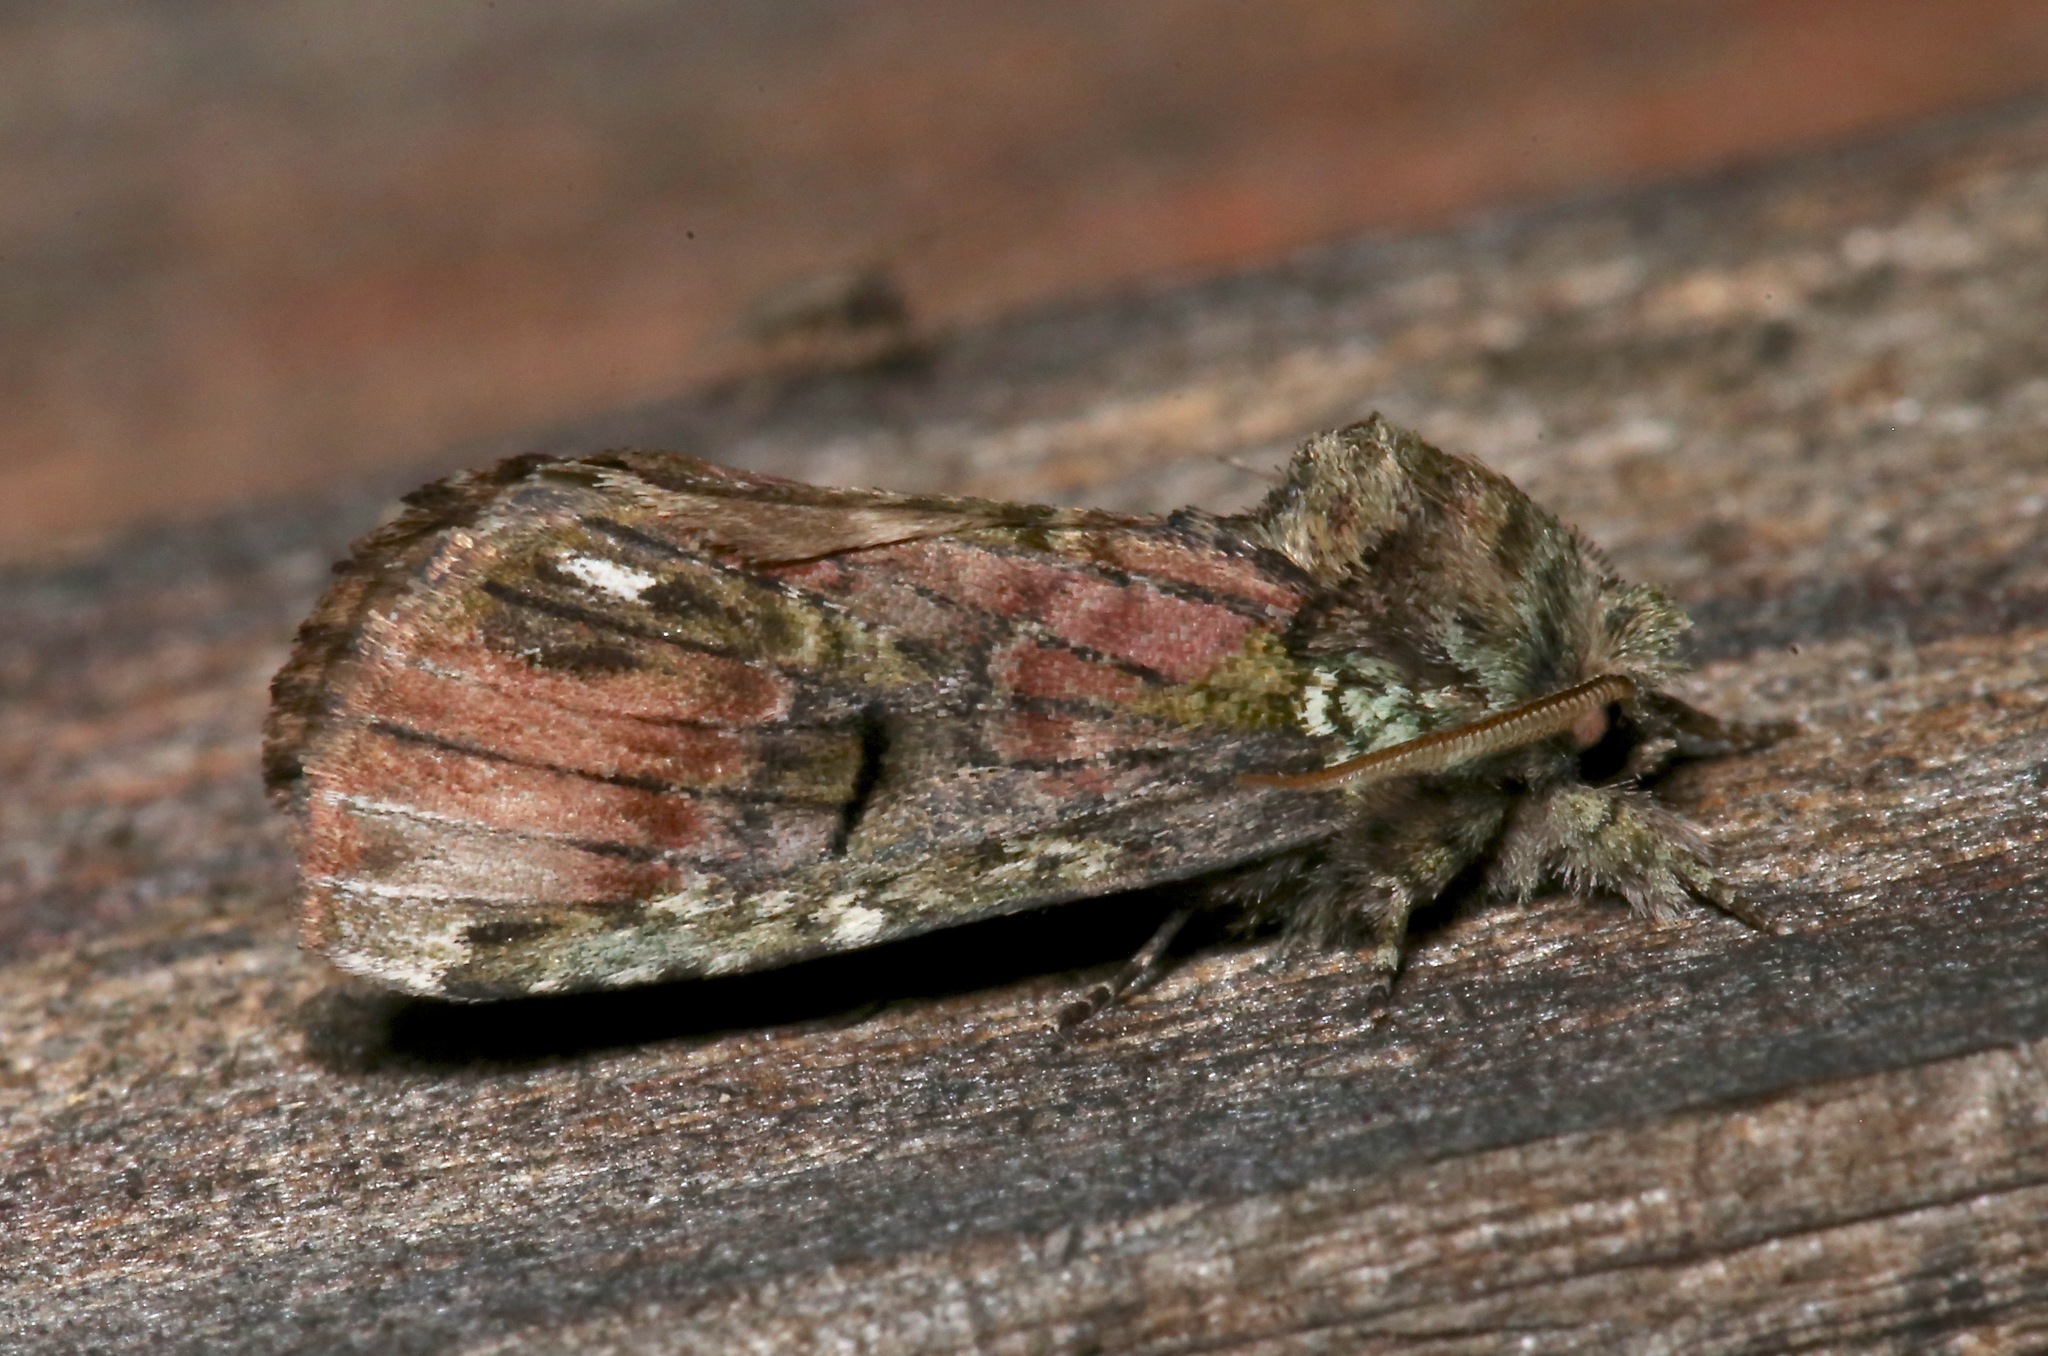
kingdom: Animalia
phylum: Arthropoda
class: Insecta
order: Lepidoptera
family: Notodontidae
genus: Schizura
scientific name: Schizura
